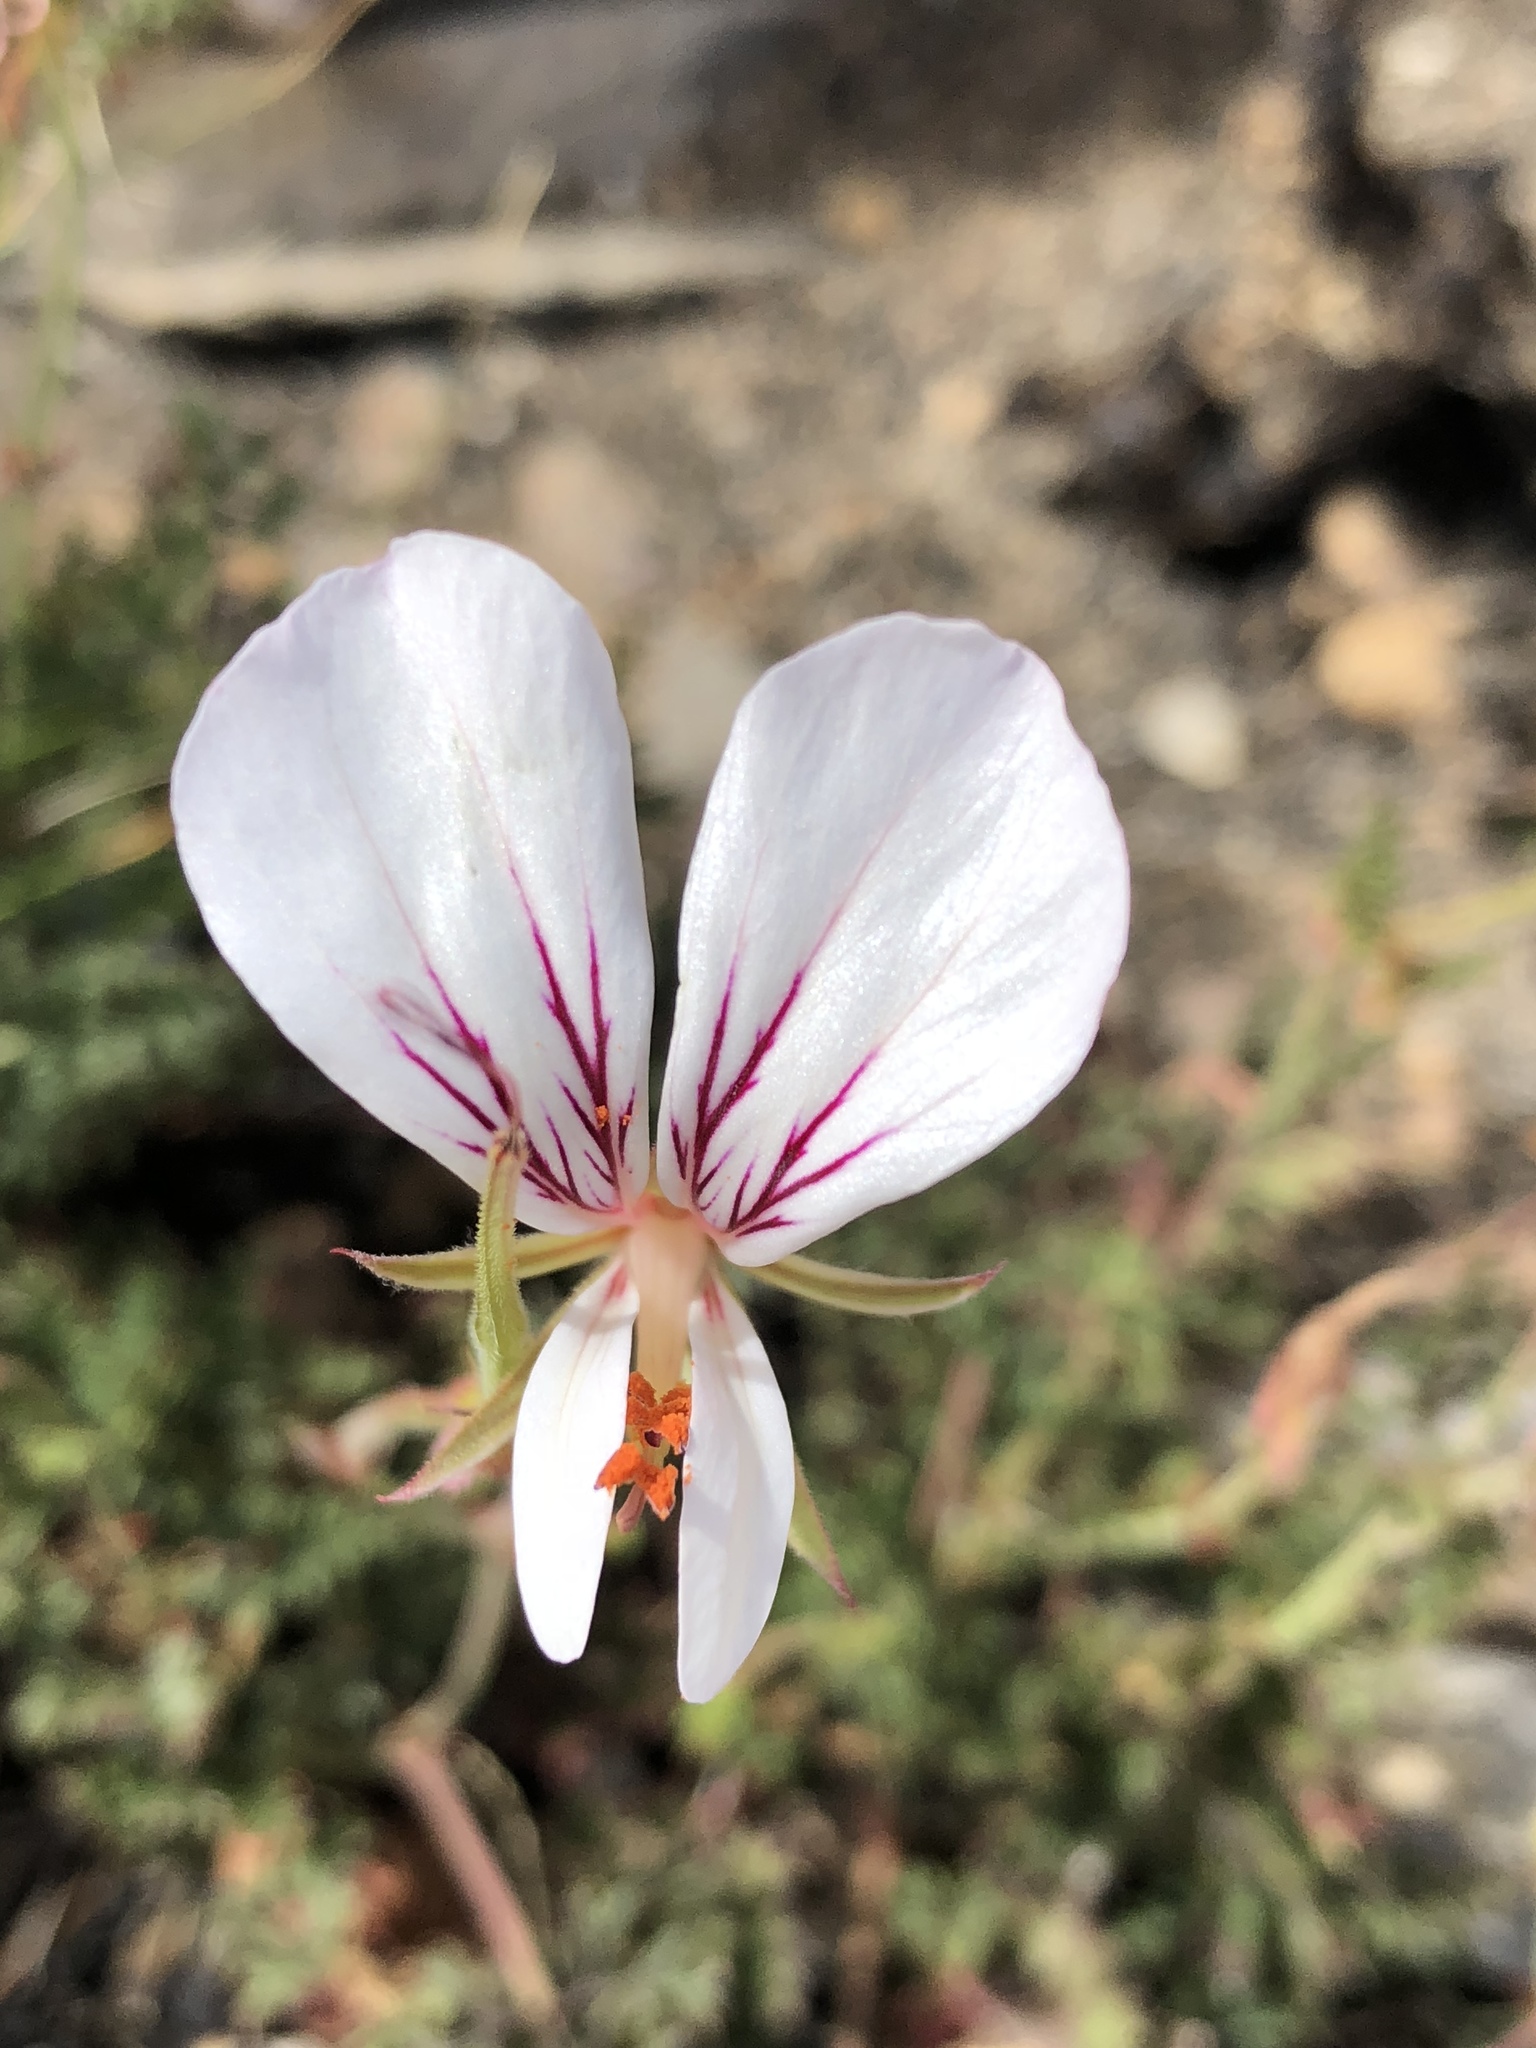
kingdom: Plantae
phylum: Tracheophyta
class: Magnoliopsida
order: Geraniales
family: Geraniaceae
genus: Pelargonium
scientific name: Pelargonium caucalifolium
